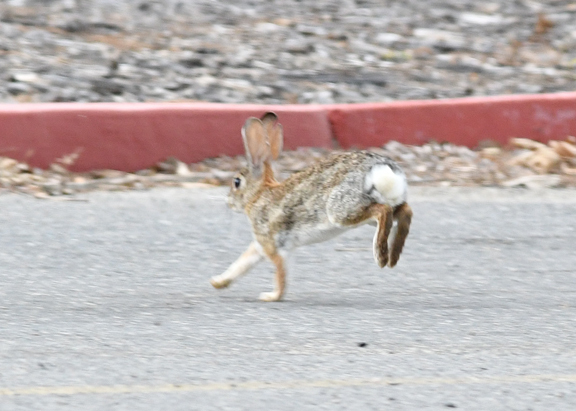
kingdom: Animalia
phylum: Chordata
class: Mammalia
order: Lagomorpha
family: Leporidae
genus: Sylvilagus
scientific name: Sylvilagus audubonii
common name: Desert cottontail
